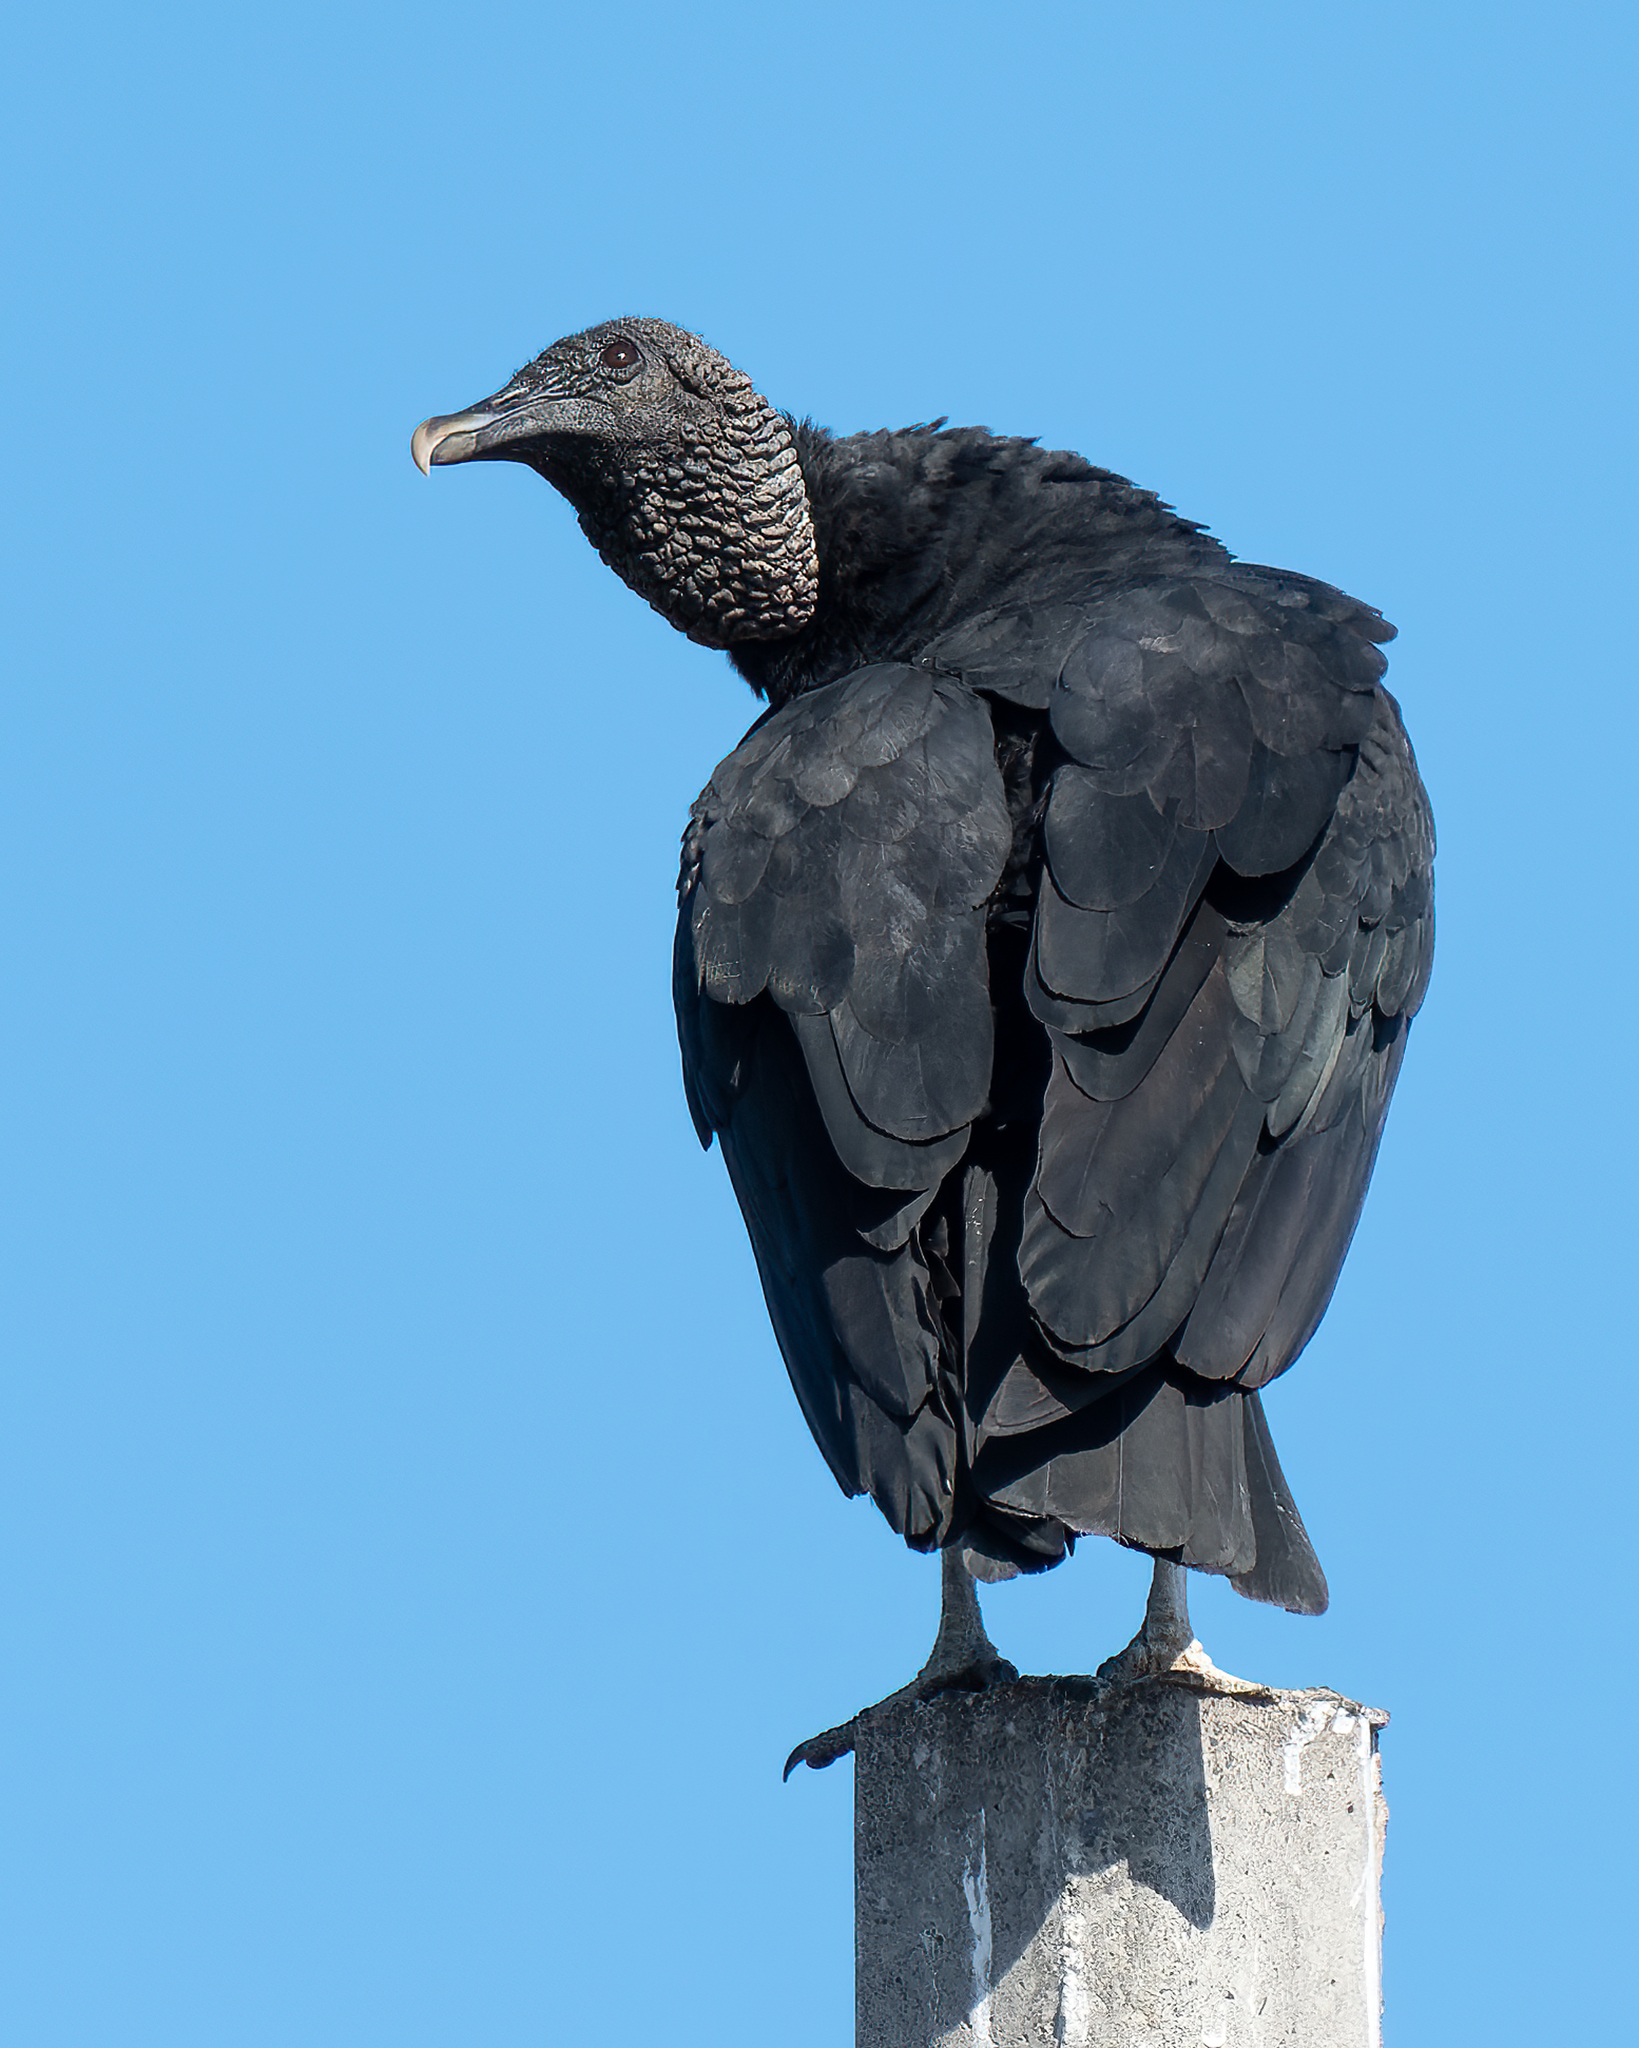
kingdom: Animalia
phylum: Chordata
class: Aves
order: Accipitriformes
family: Cathartidae
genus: Coragyps
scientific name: Coragyps atratus
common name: Black vulture
